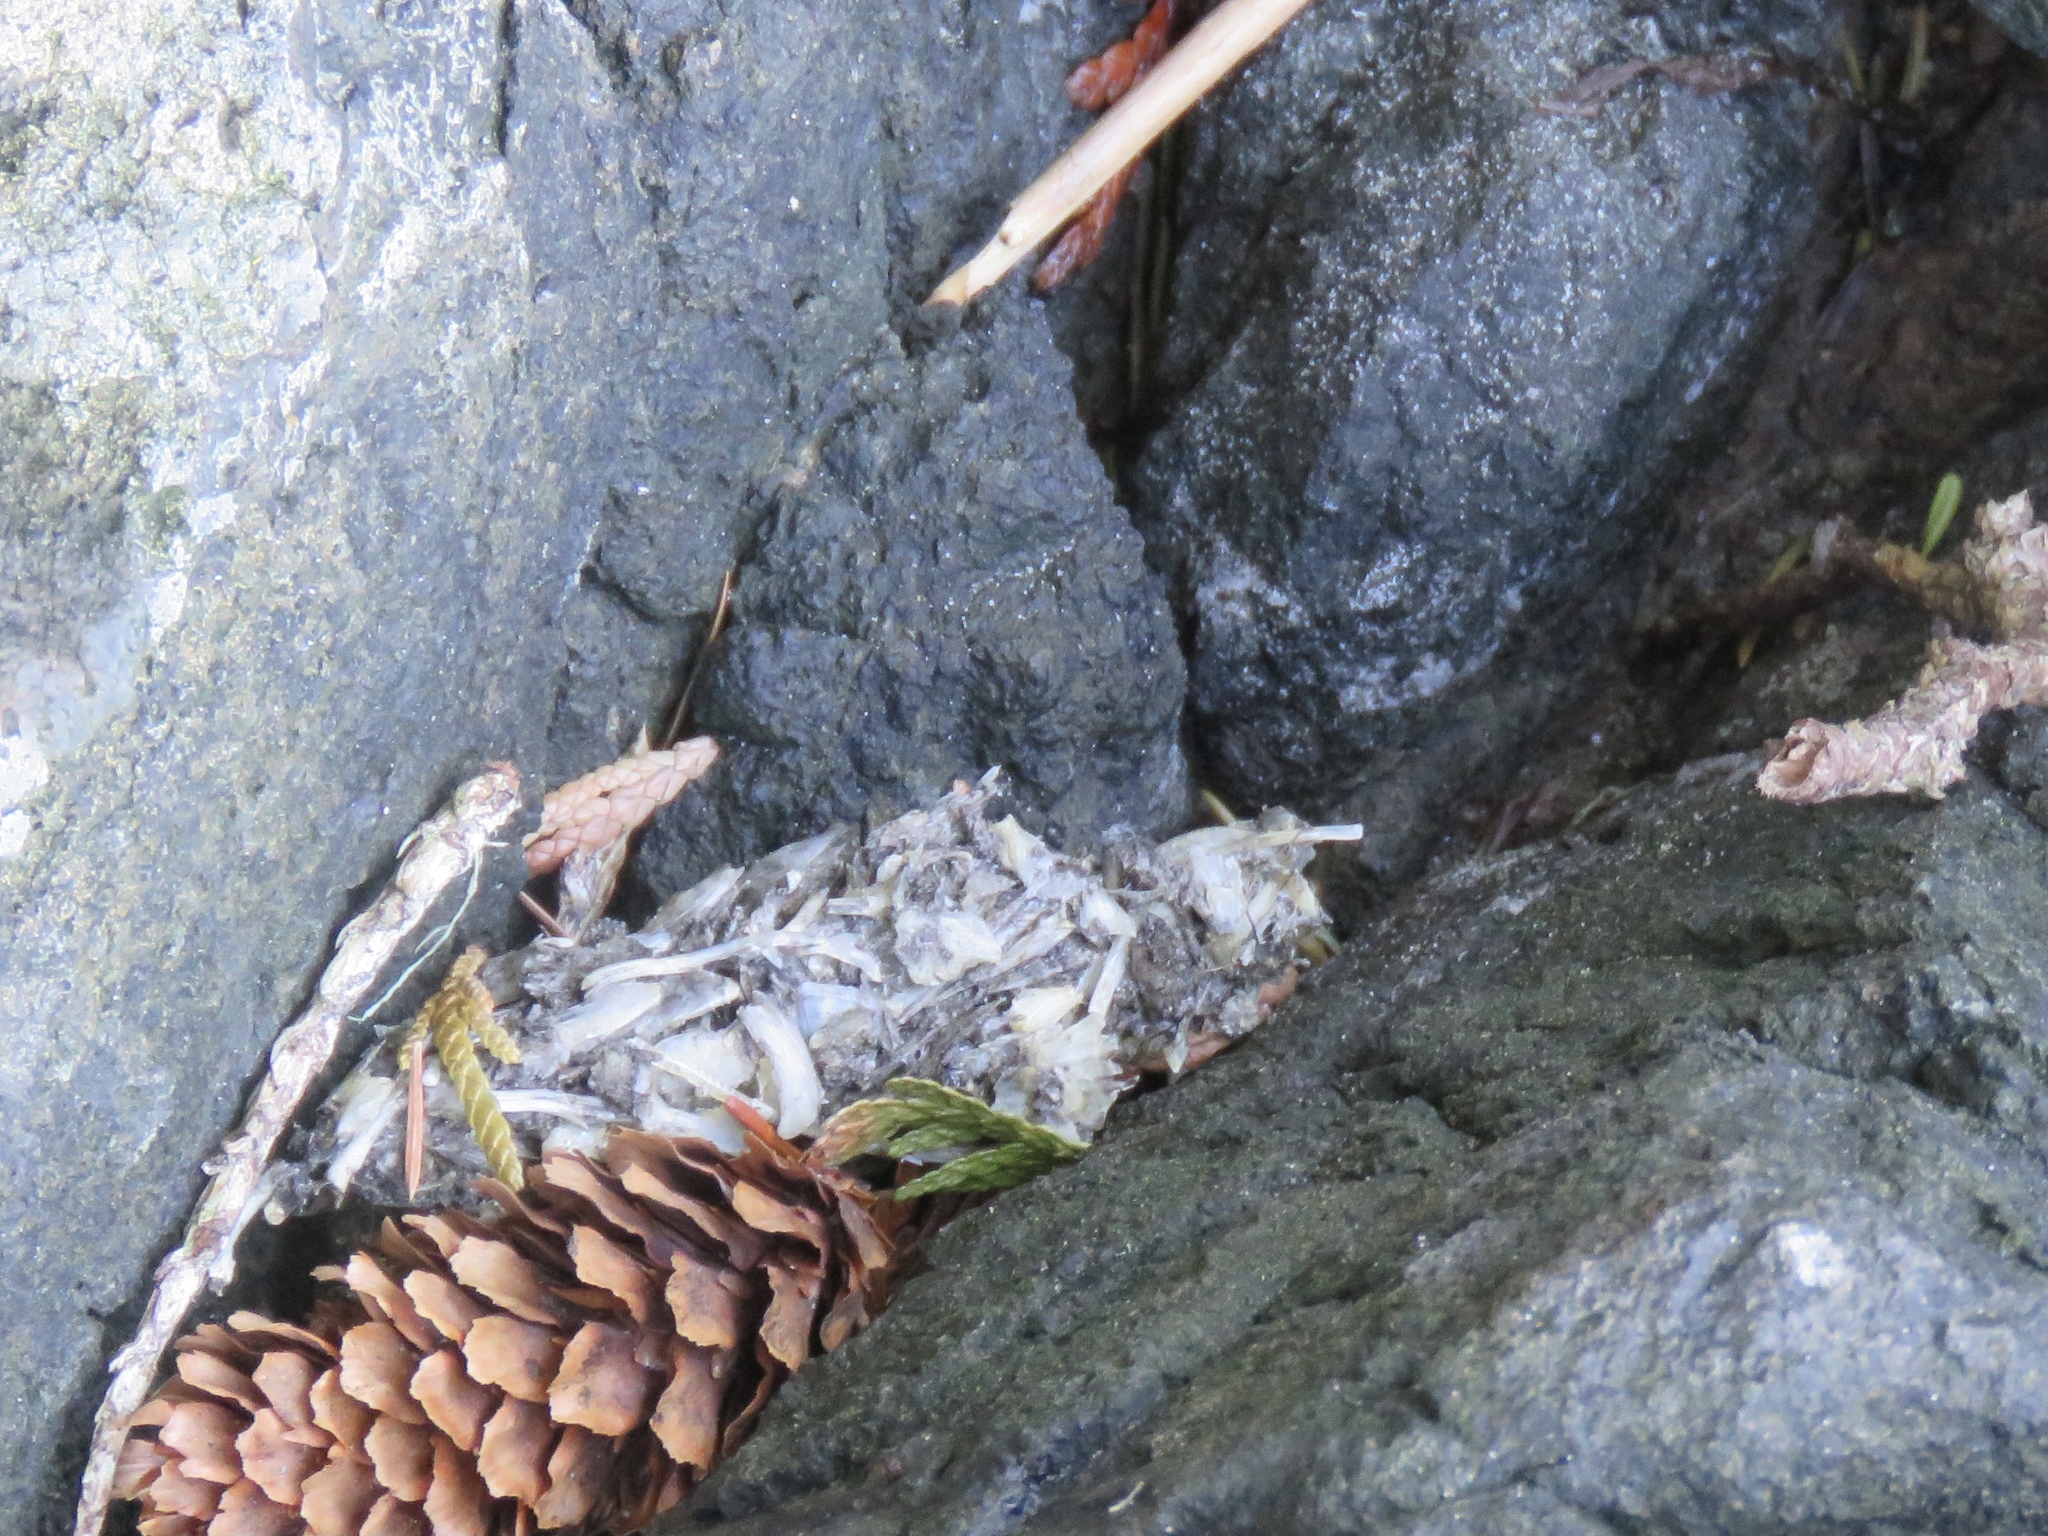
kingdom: Animalia
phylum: Chordata
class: Mammalia
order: Carnivora
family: Mustelidae
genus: Lontra
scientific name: Lontra canadensis
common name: North american river otter
